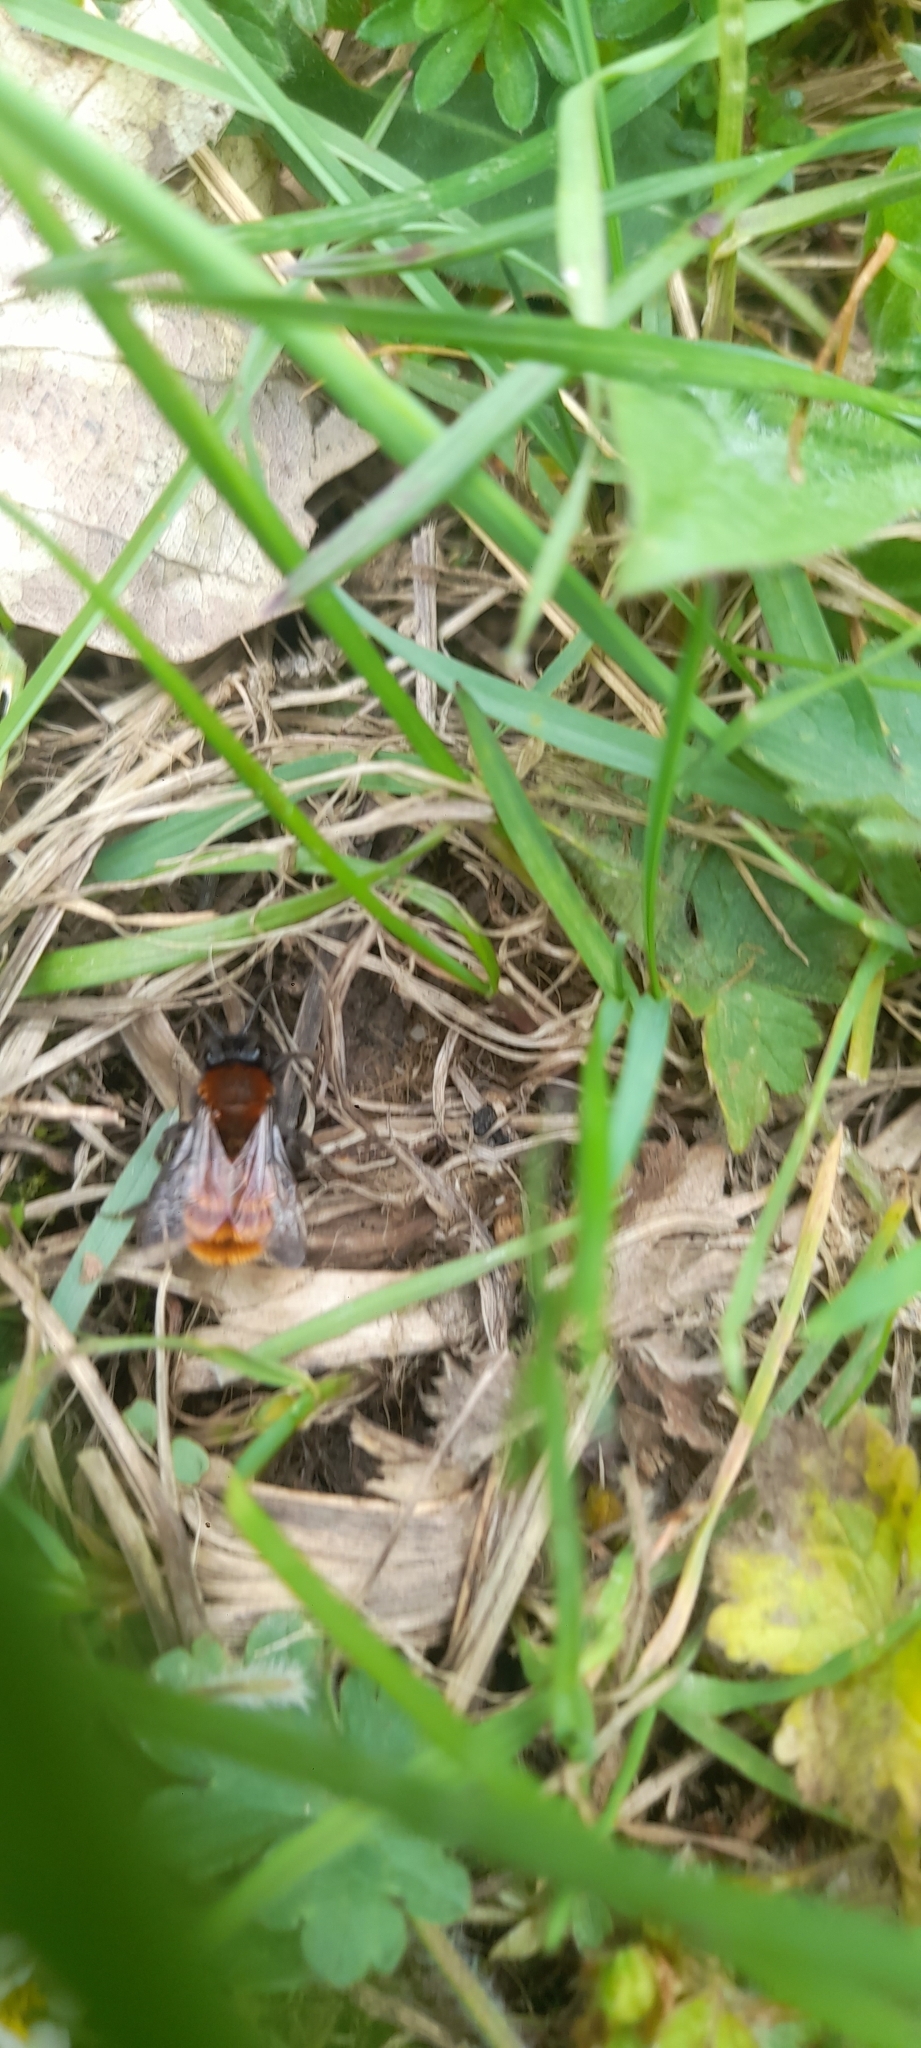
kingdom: Animalia
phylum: Arthropoda
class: Insecta
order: Hymenoptera
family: Andrenidae
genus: Andrena
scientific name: Andrena fulva
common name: Tawny mining bee
